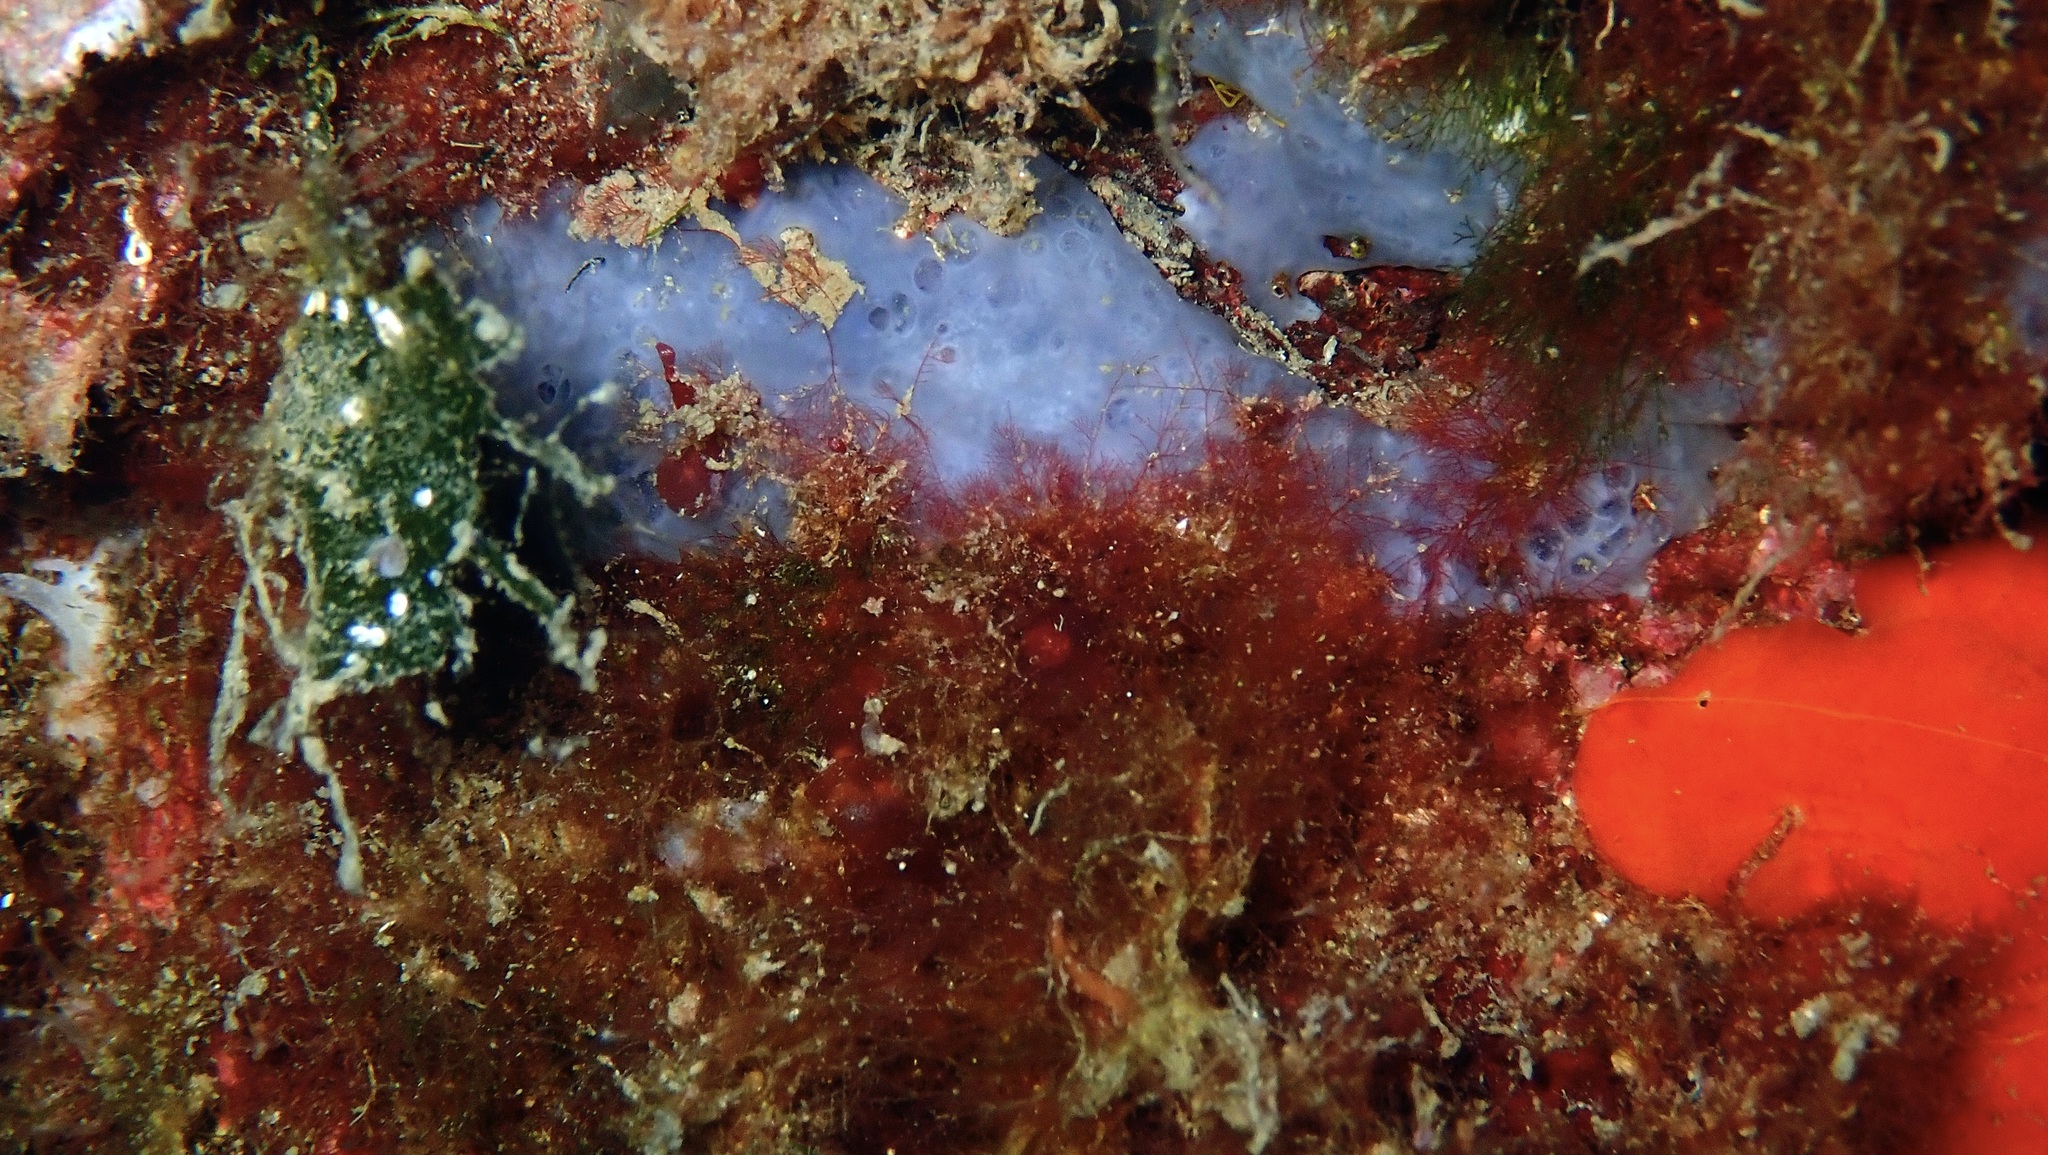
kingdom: Animalia
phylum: Porifera
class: Demospongiae
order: Poecilosclerida
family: Hymedesmiidae
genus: Phorbas
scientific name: Phorbas tenacior
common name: Bluish encrusting sponge
